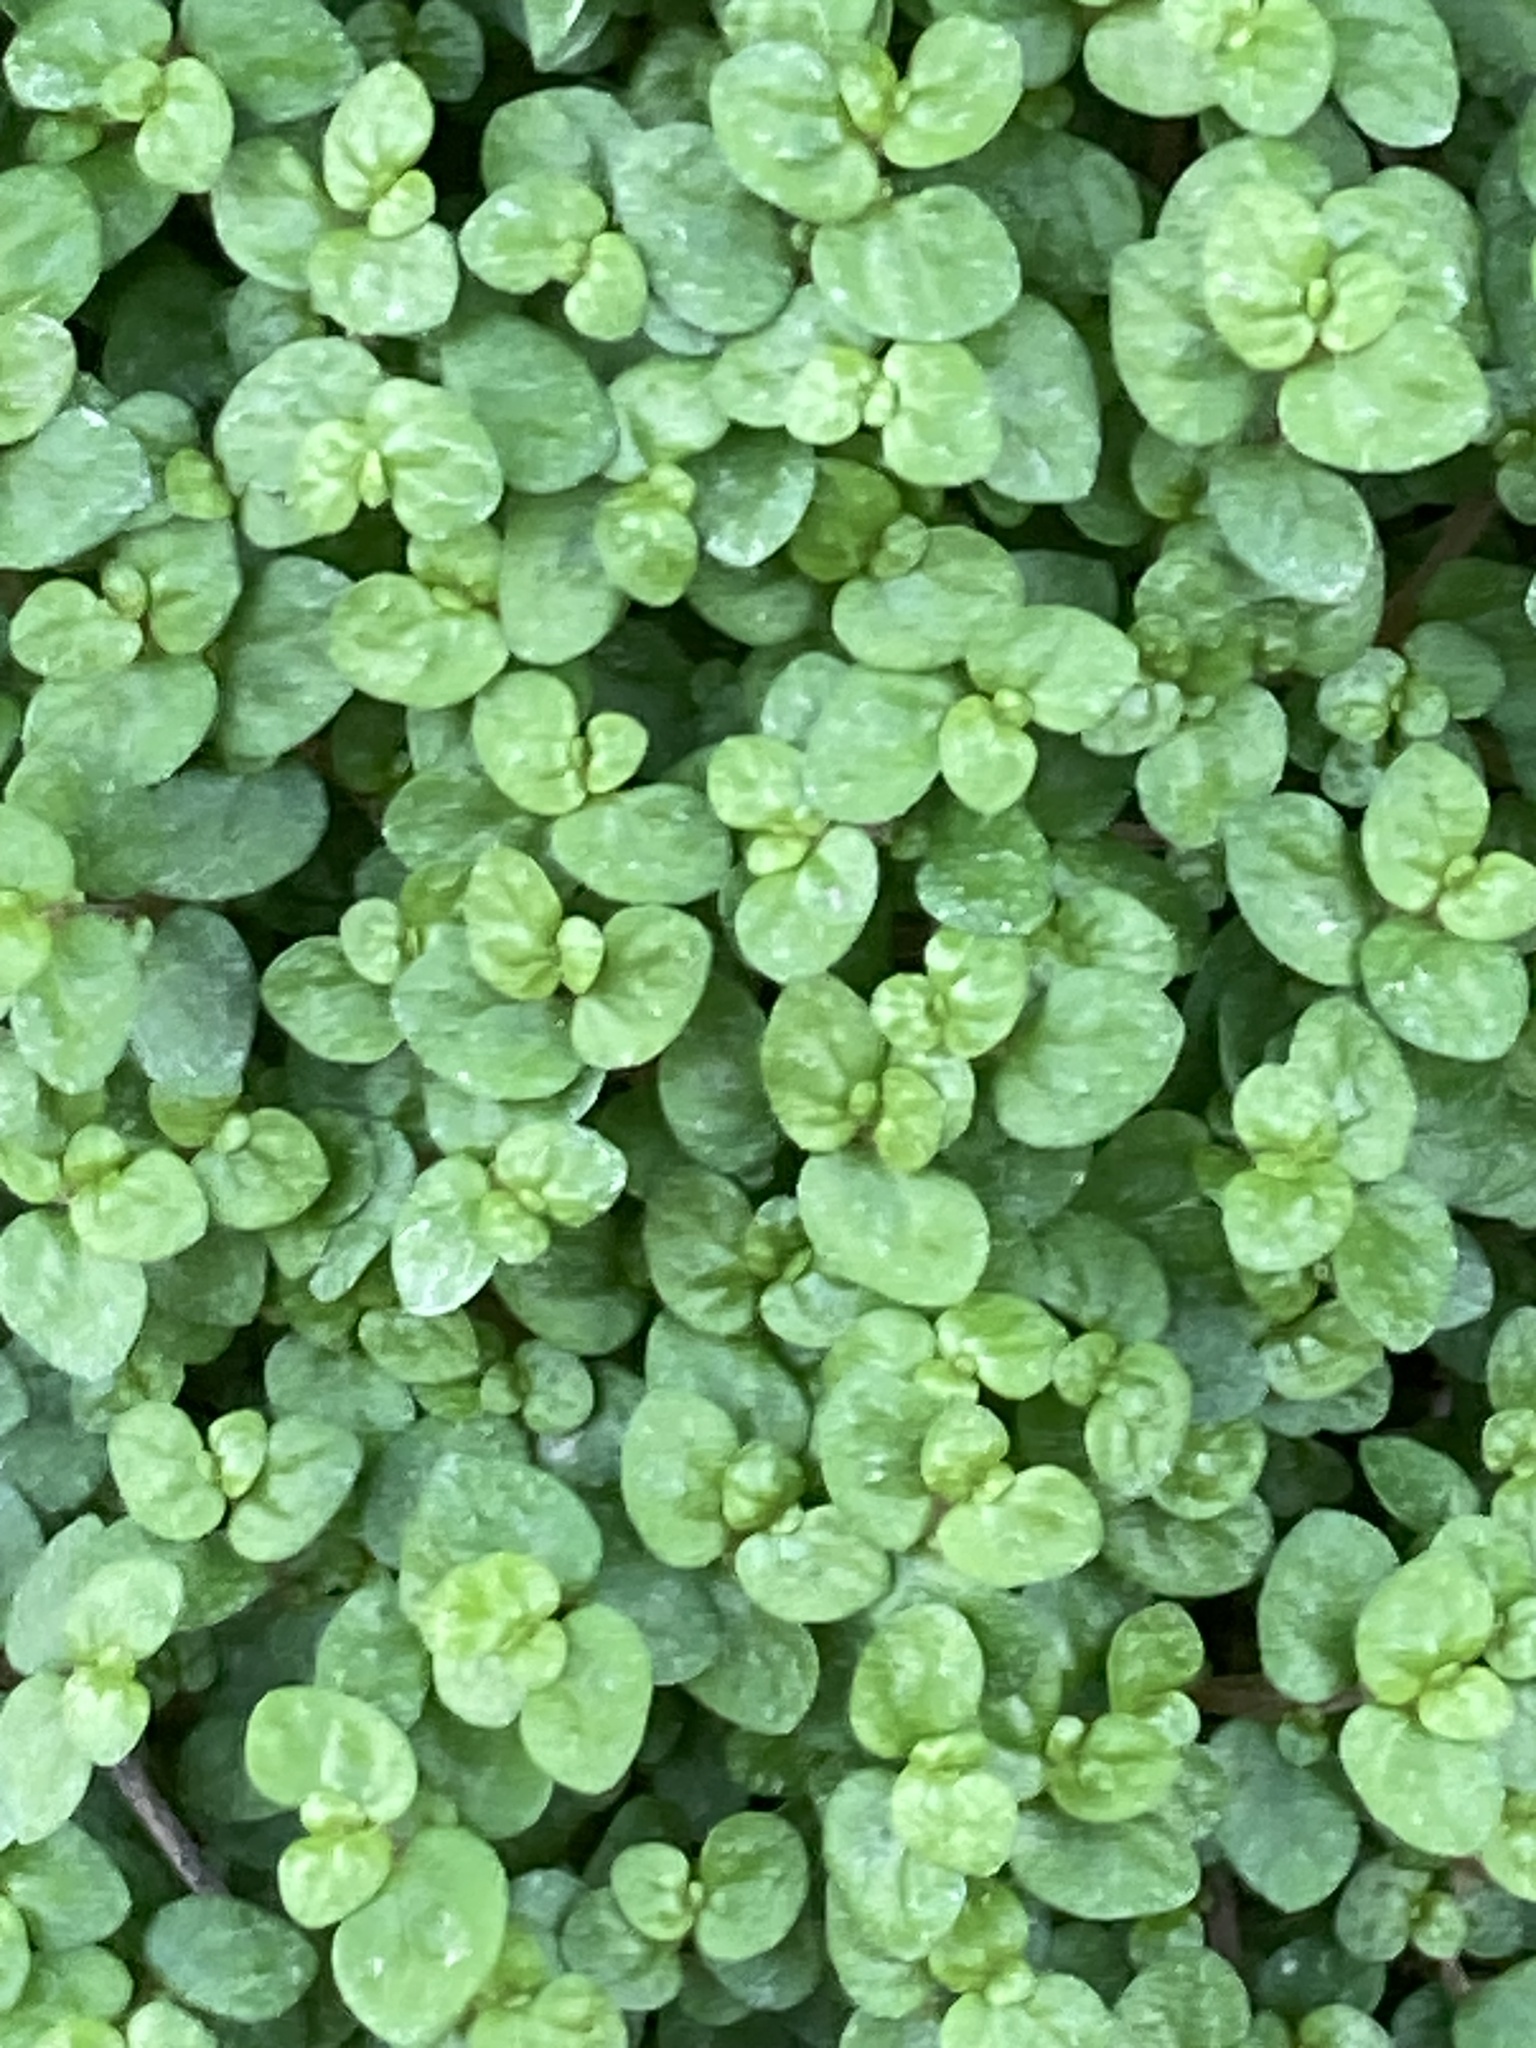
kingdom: Plantae
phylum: Tracheophyta
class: Magnoliopsida
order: Rosales
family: Urticaceae
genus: Soleirolia
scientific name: Soleirolia soleirolii
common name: Mind-your-own-business
